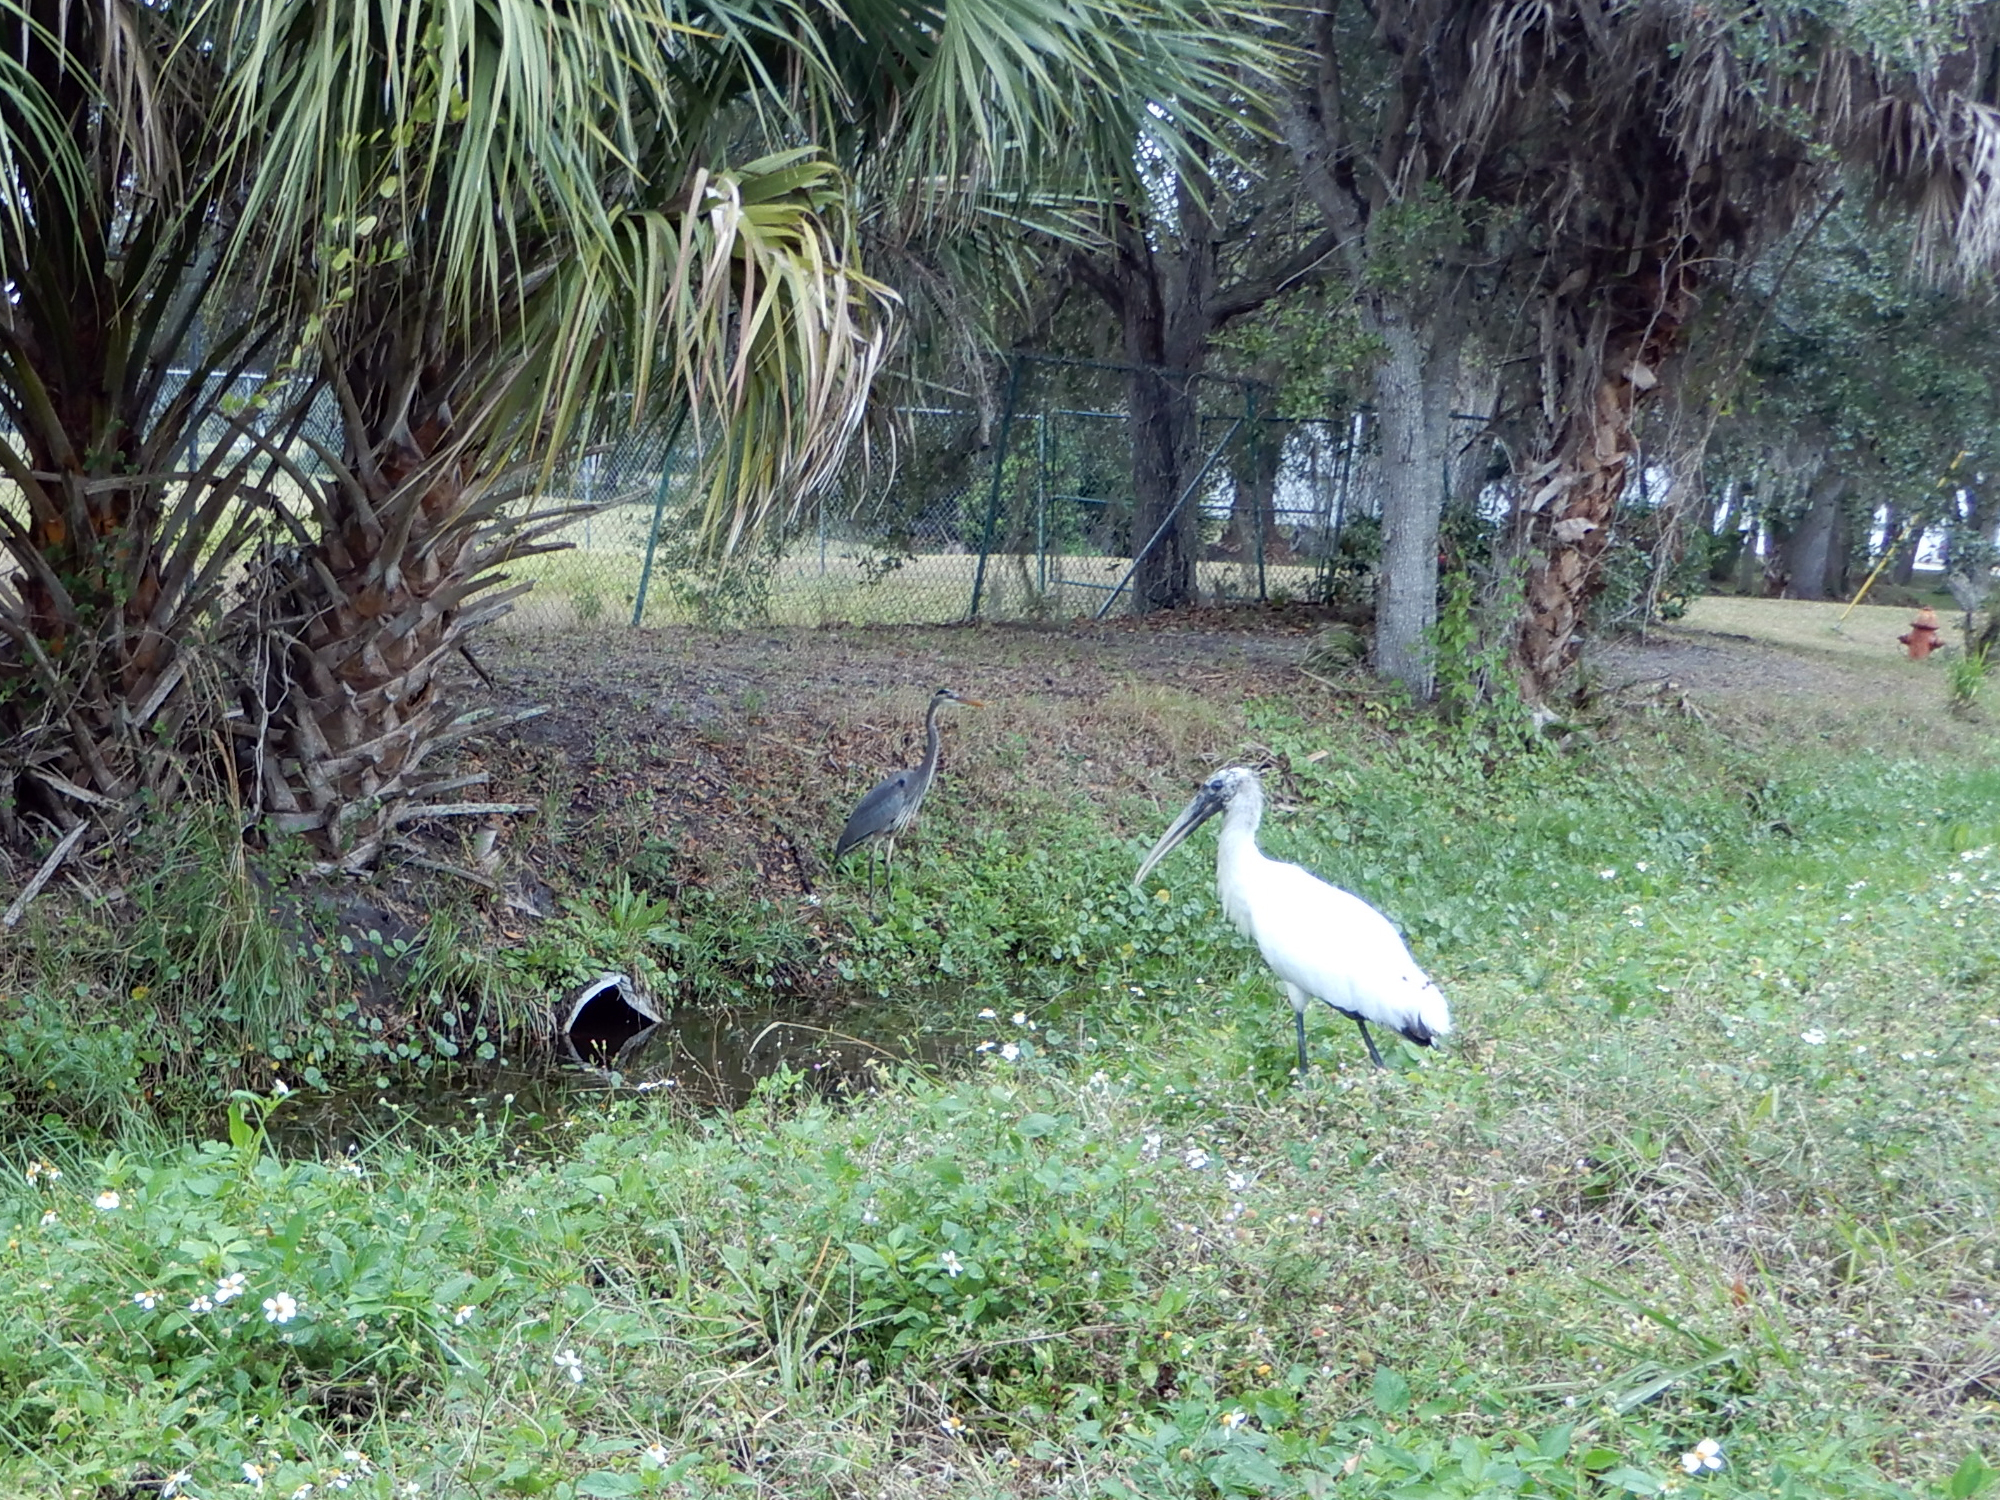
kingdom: Animalia
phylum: Chordata
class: Aves
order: Pelecaniformes
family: Ardeidae
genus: Ardea
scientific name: Ardea herodias
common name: Great blue heron
